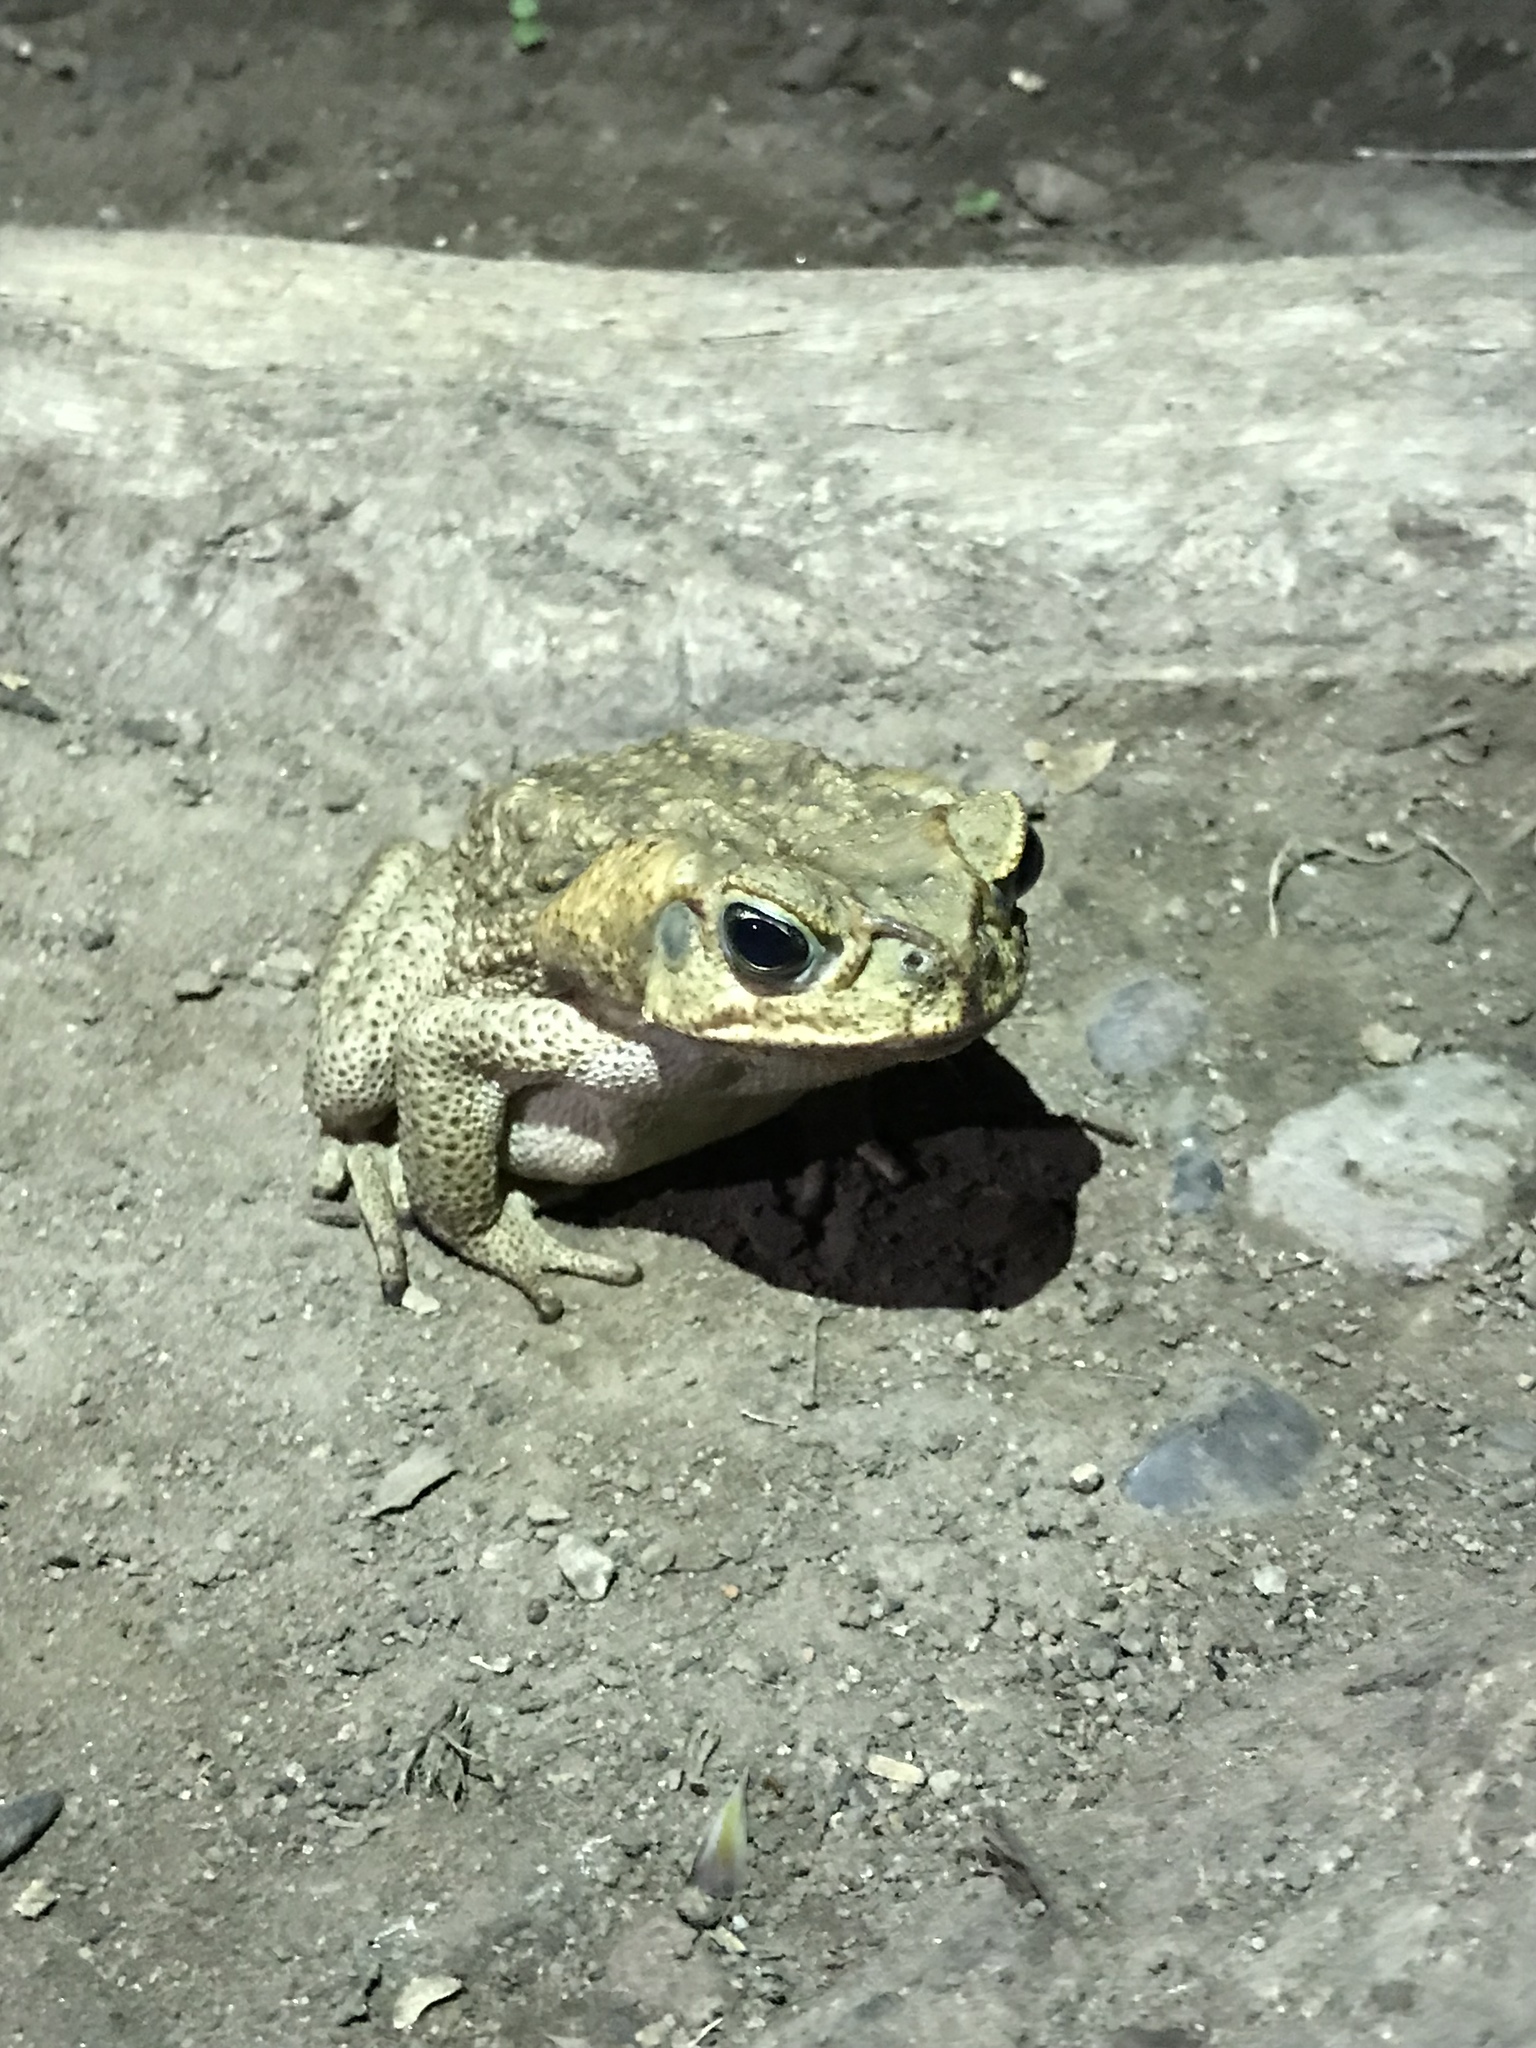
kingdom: Animalia
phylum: Chordata
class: Amphibia
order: Anura
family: Bufonidae
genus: Rhinella
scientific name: Rhinella horribilis
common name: Mesoamerican cane toad
